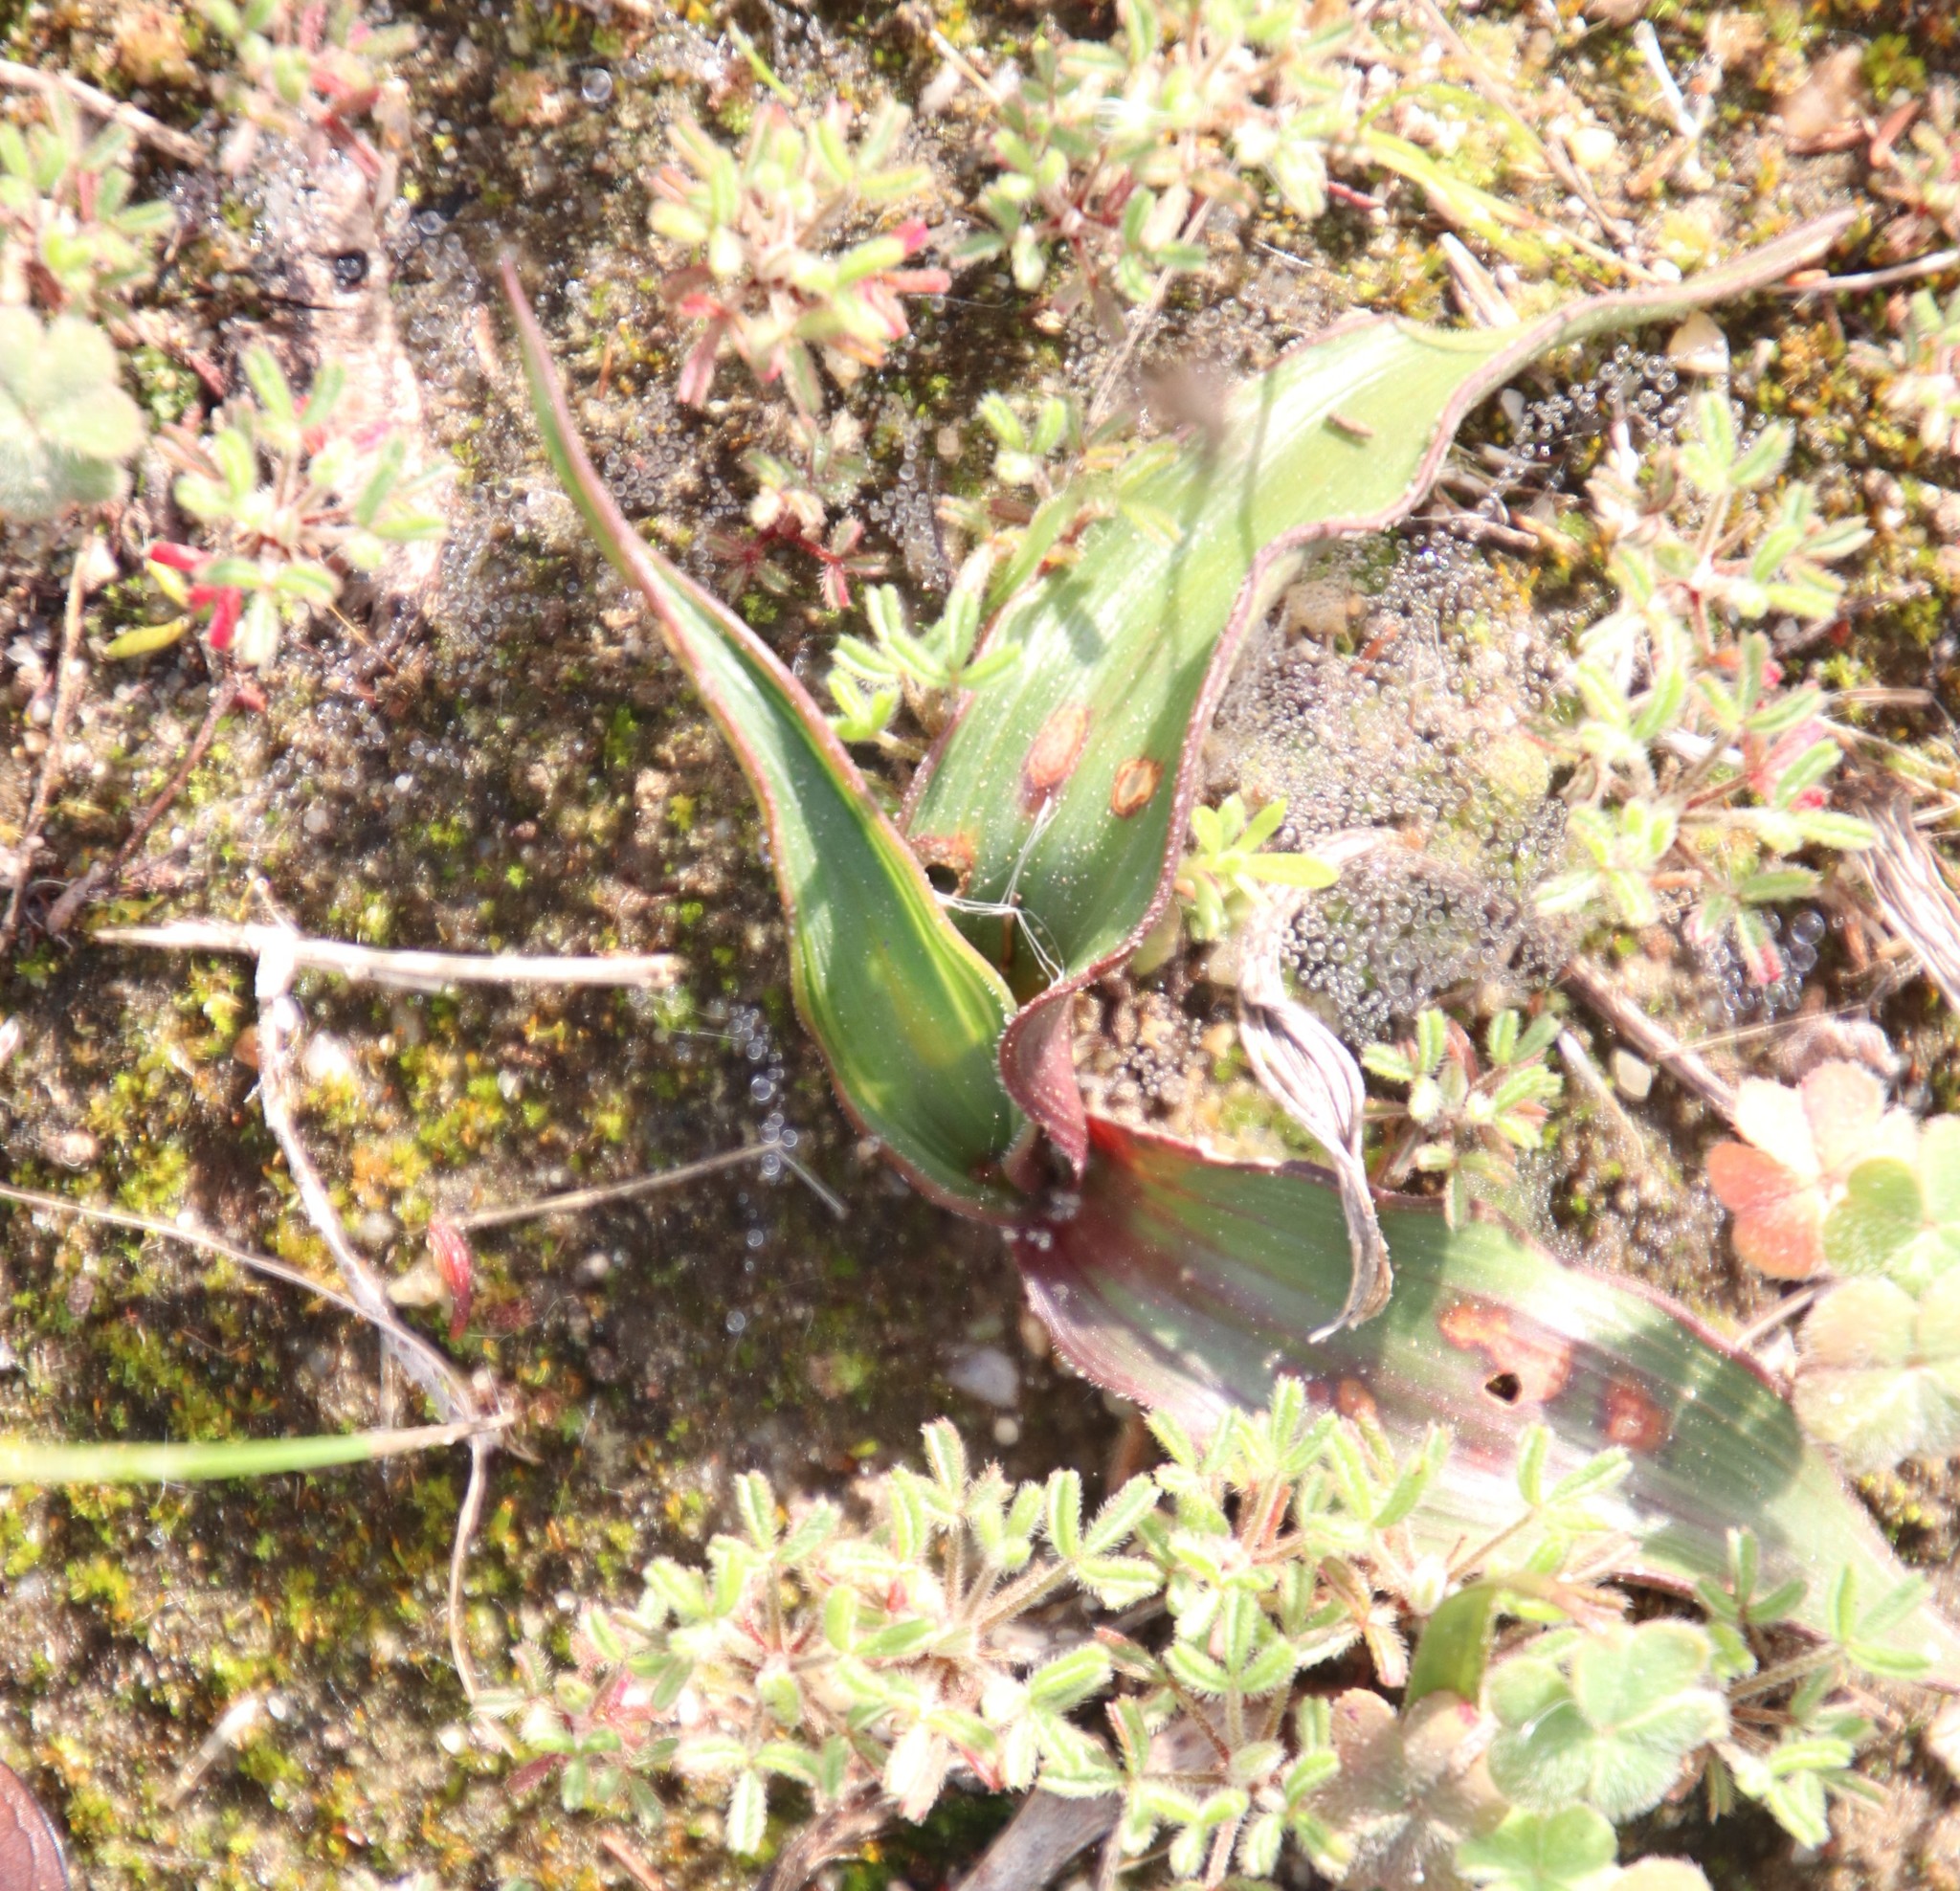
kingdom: Plantae
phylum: Tracheophyta
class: Liliopsida
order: Asparagales
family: Tecophilaeaceae
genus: Cyanella
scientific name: Cyanella hyacinthoides
